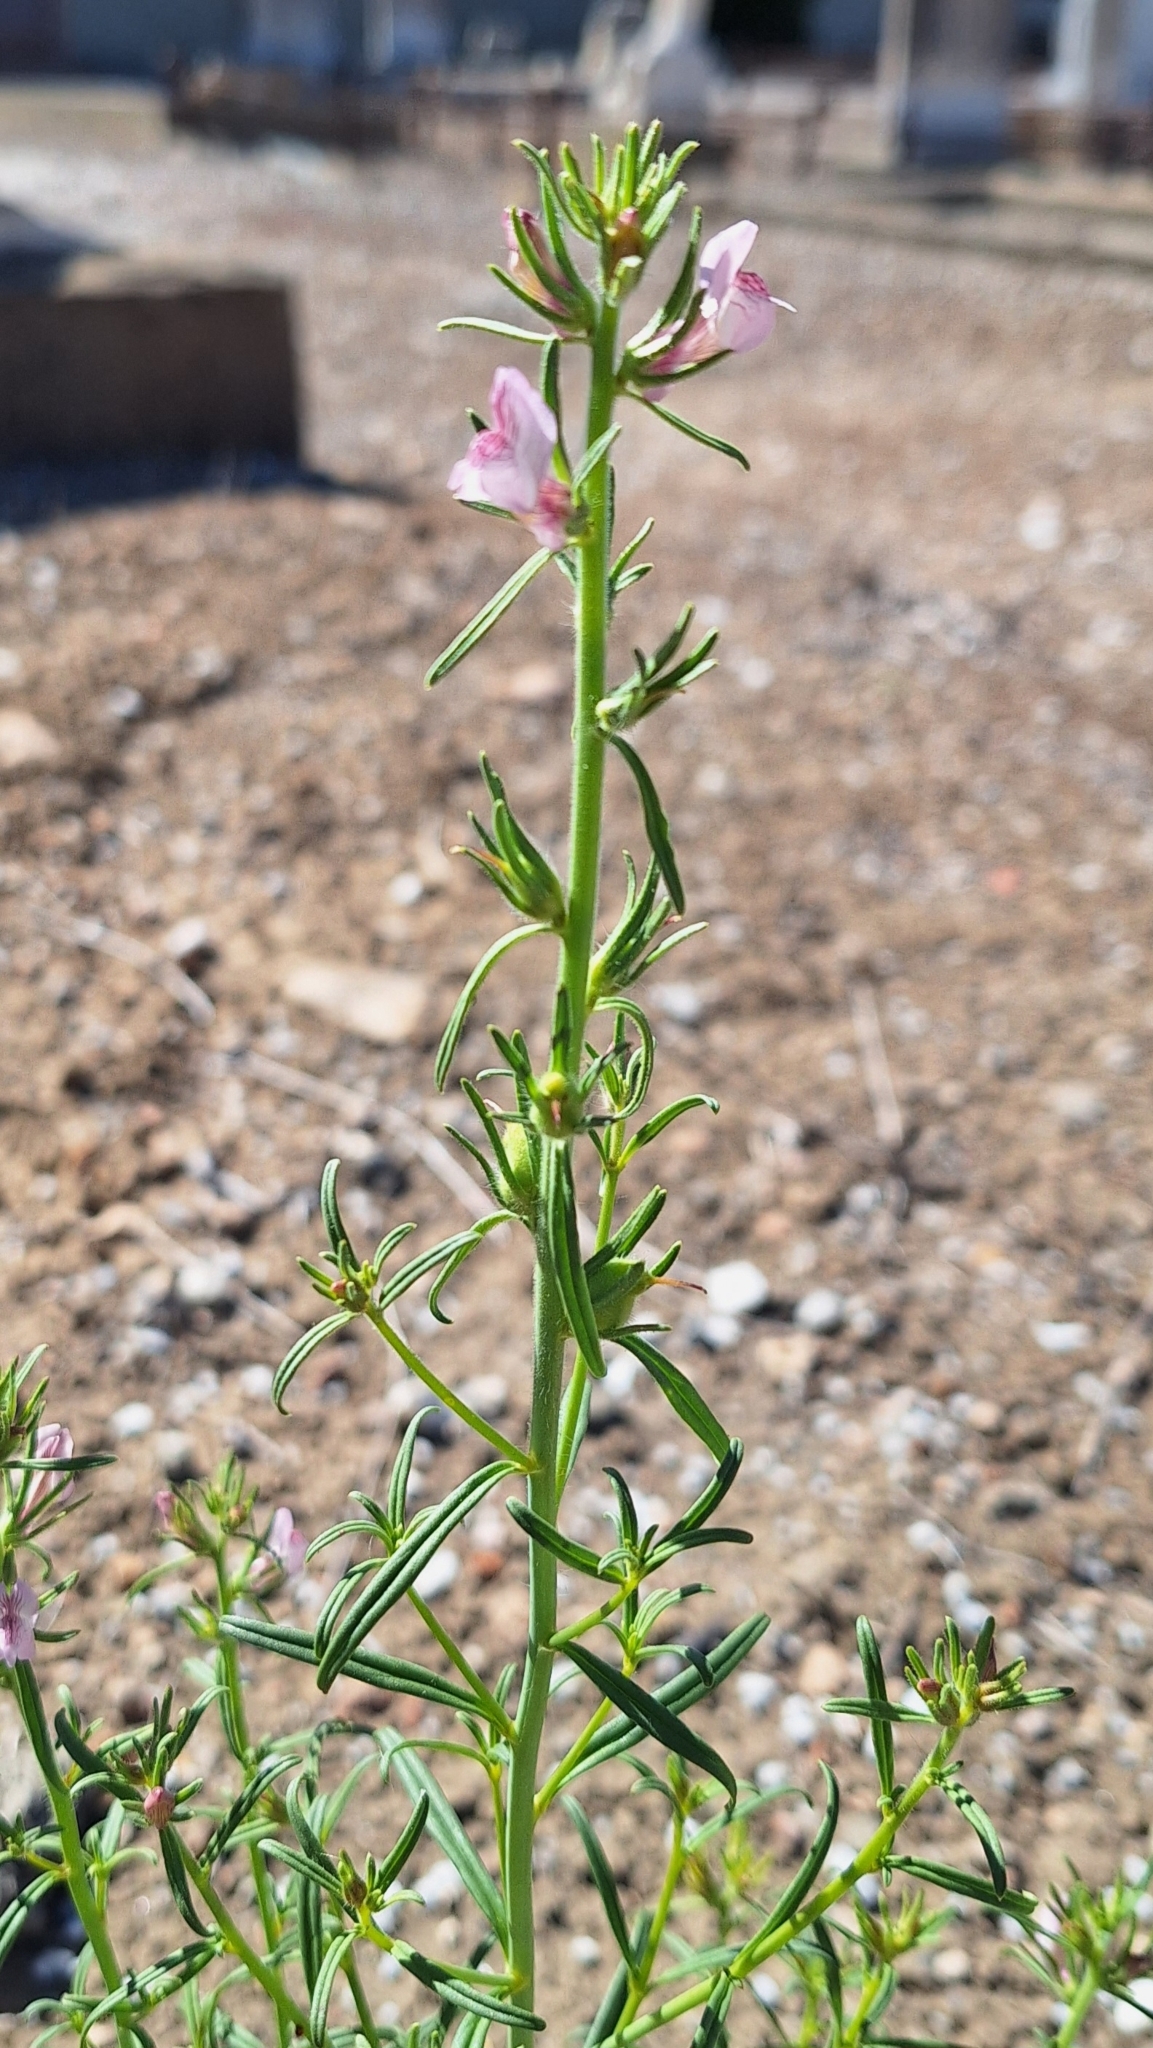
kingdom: Plantae
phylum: Tracheophyta
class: Magnoliopsida
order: Lamiales
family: Plantaginaceae
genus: Misopates
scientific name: Misopates orontium
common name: Weasel's-snout
